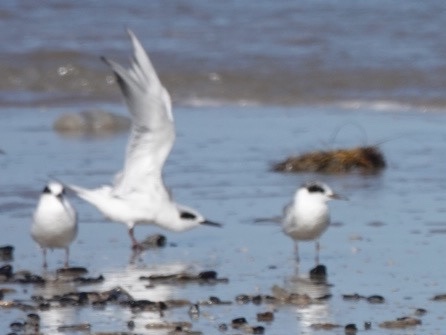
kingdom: Animalia
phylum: Chordata
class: Aves
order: Charadriiformes
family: Laridae
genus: Sterna
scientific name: Sterna forsteri
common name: Forster's tern
